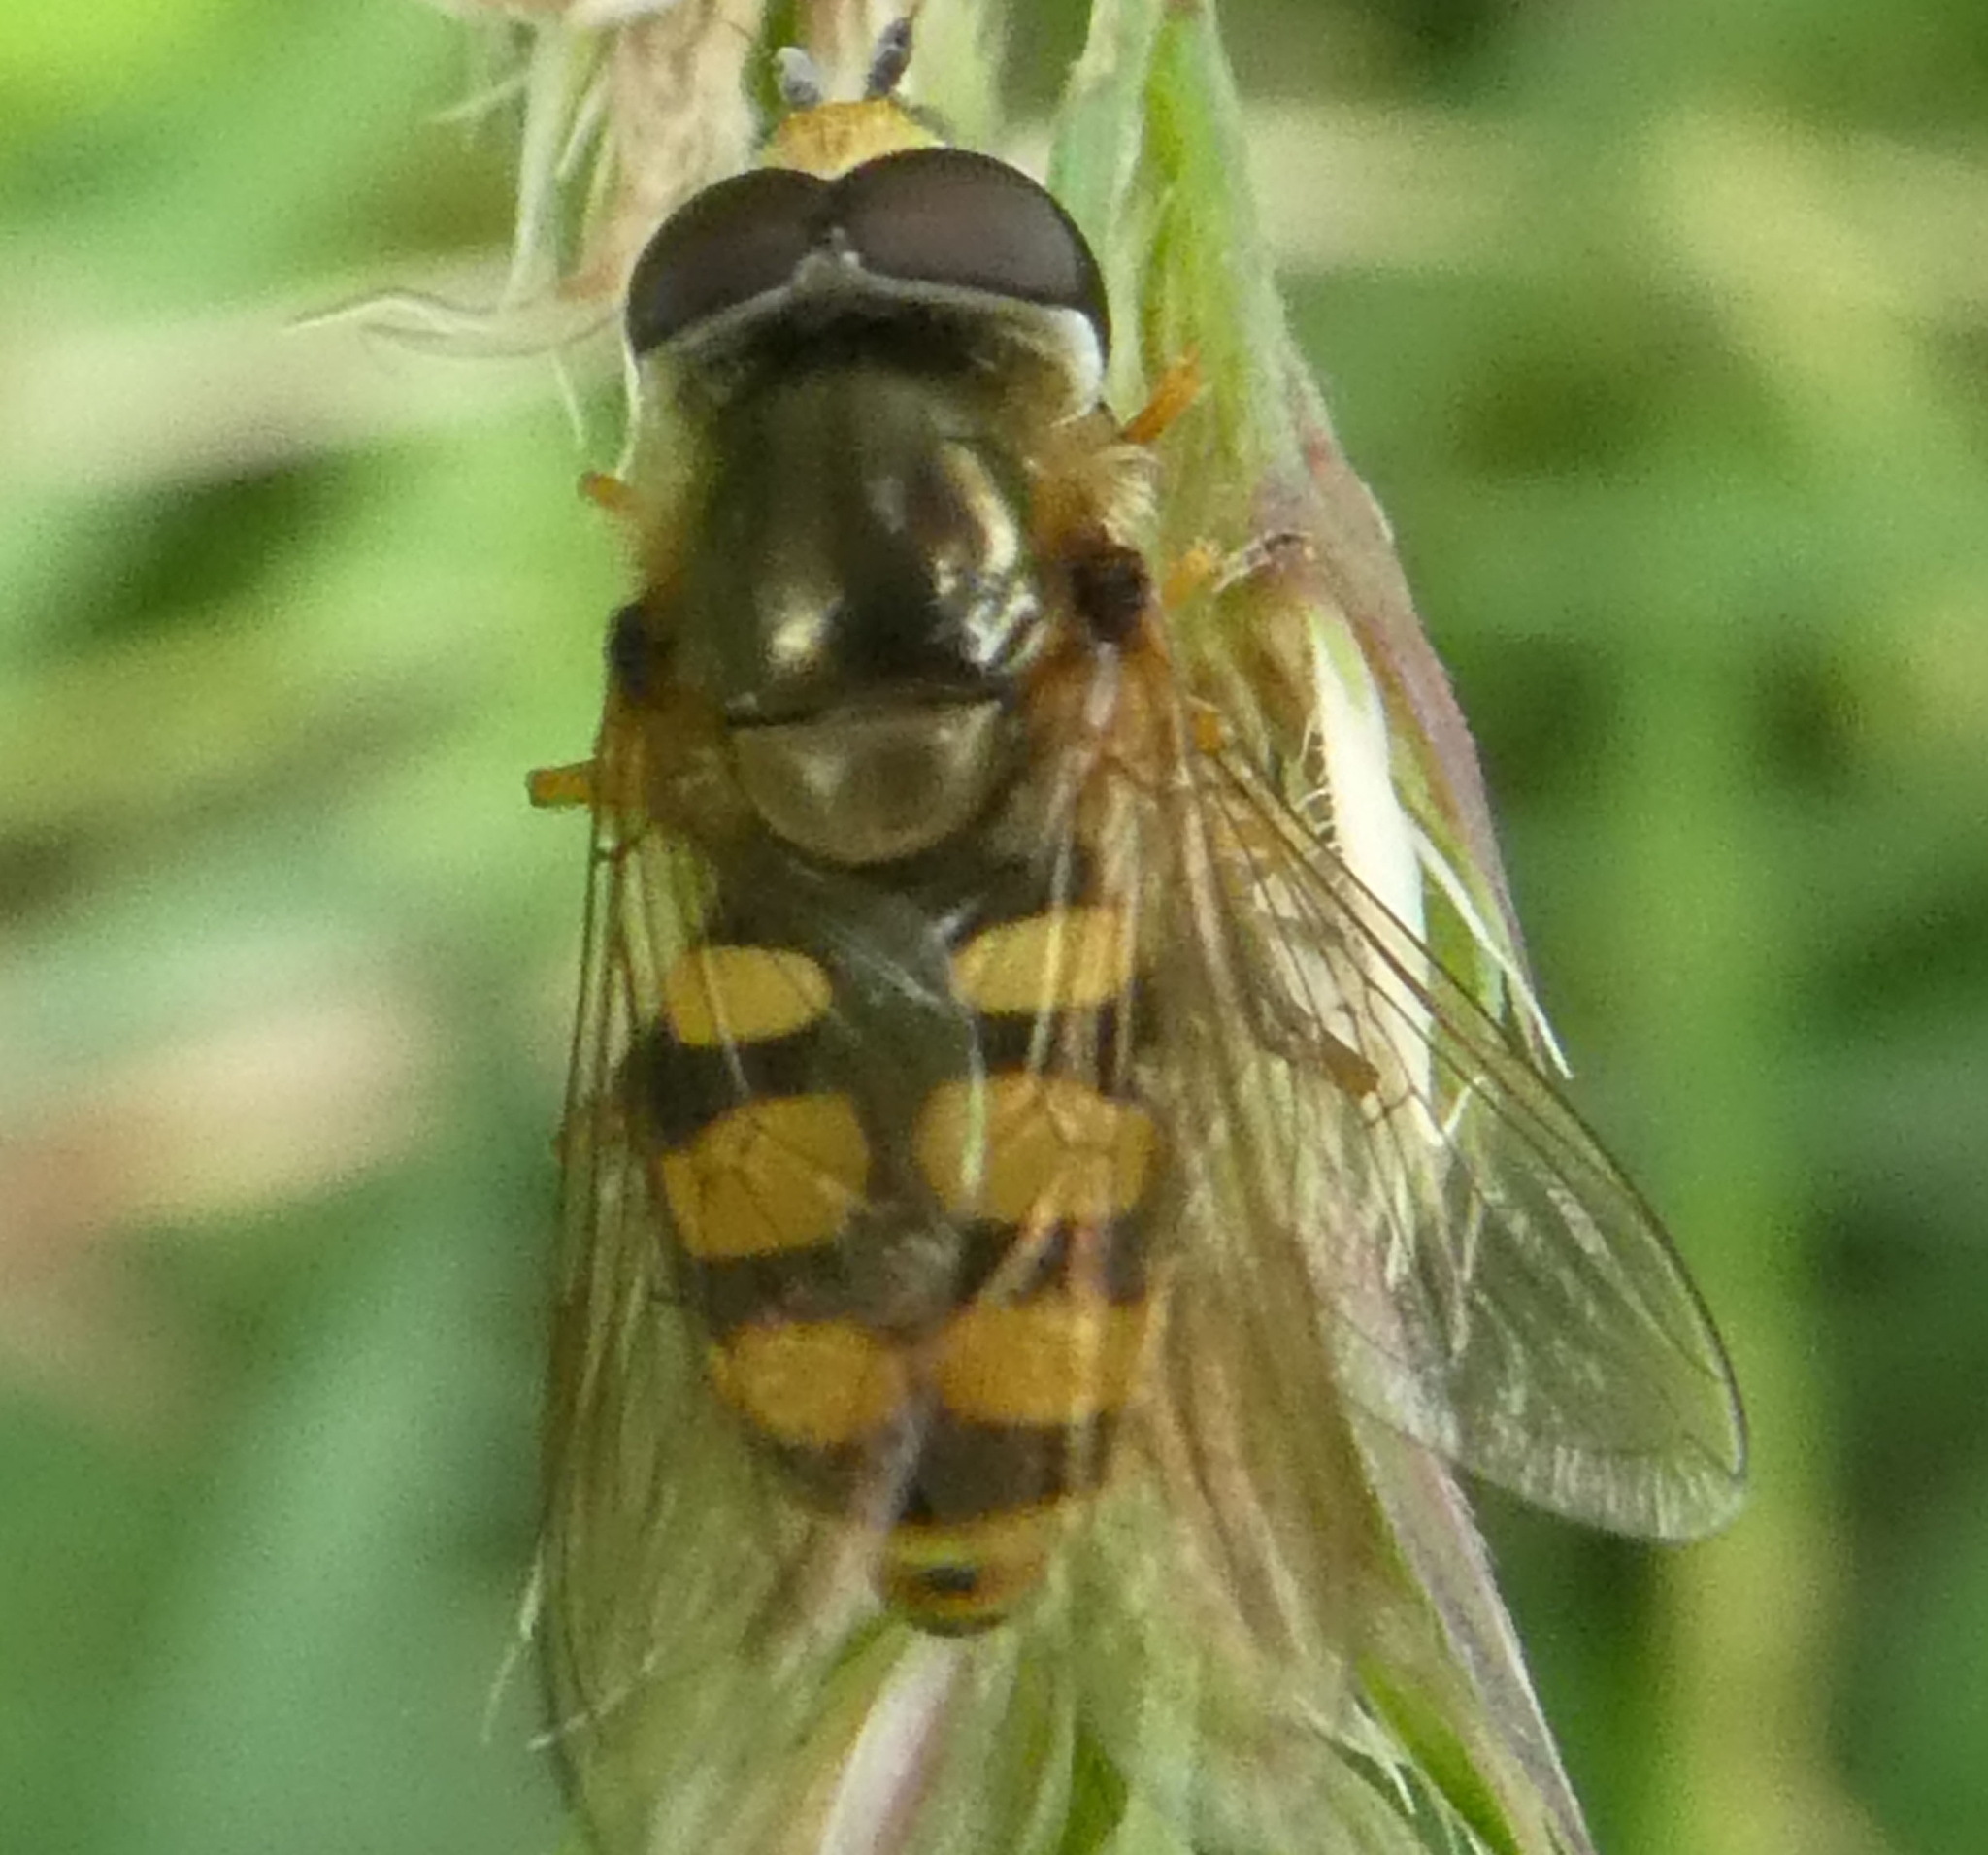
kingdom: Animalia
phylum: Arthropoda
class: Insecta
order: Diptera
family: Syrphidae
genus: Eupeodes
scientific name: Eupeodes corollae
